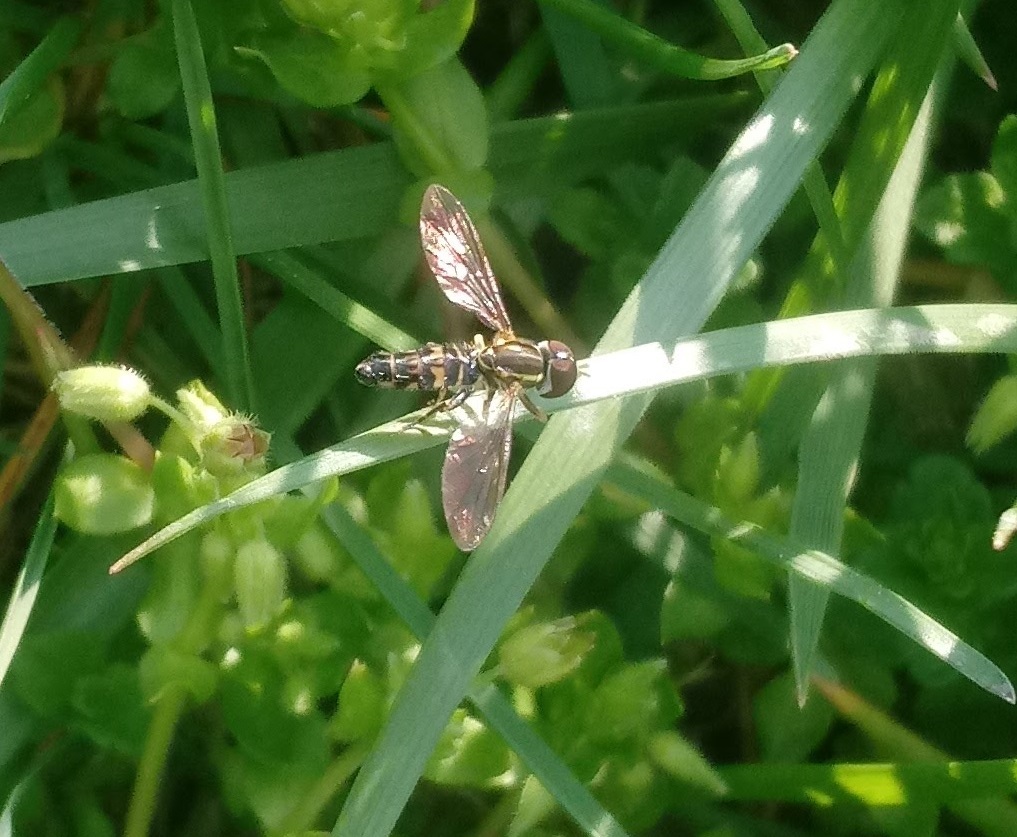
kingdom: Animalia
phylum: Arthropoda
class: Insecta
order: Diptera
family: Syrphidae
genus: Toxomerus
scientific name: Toxomerus geminatus
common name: Eastern calligrapher
